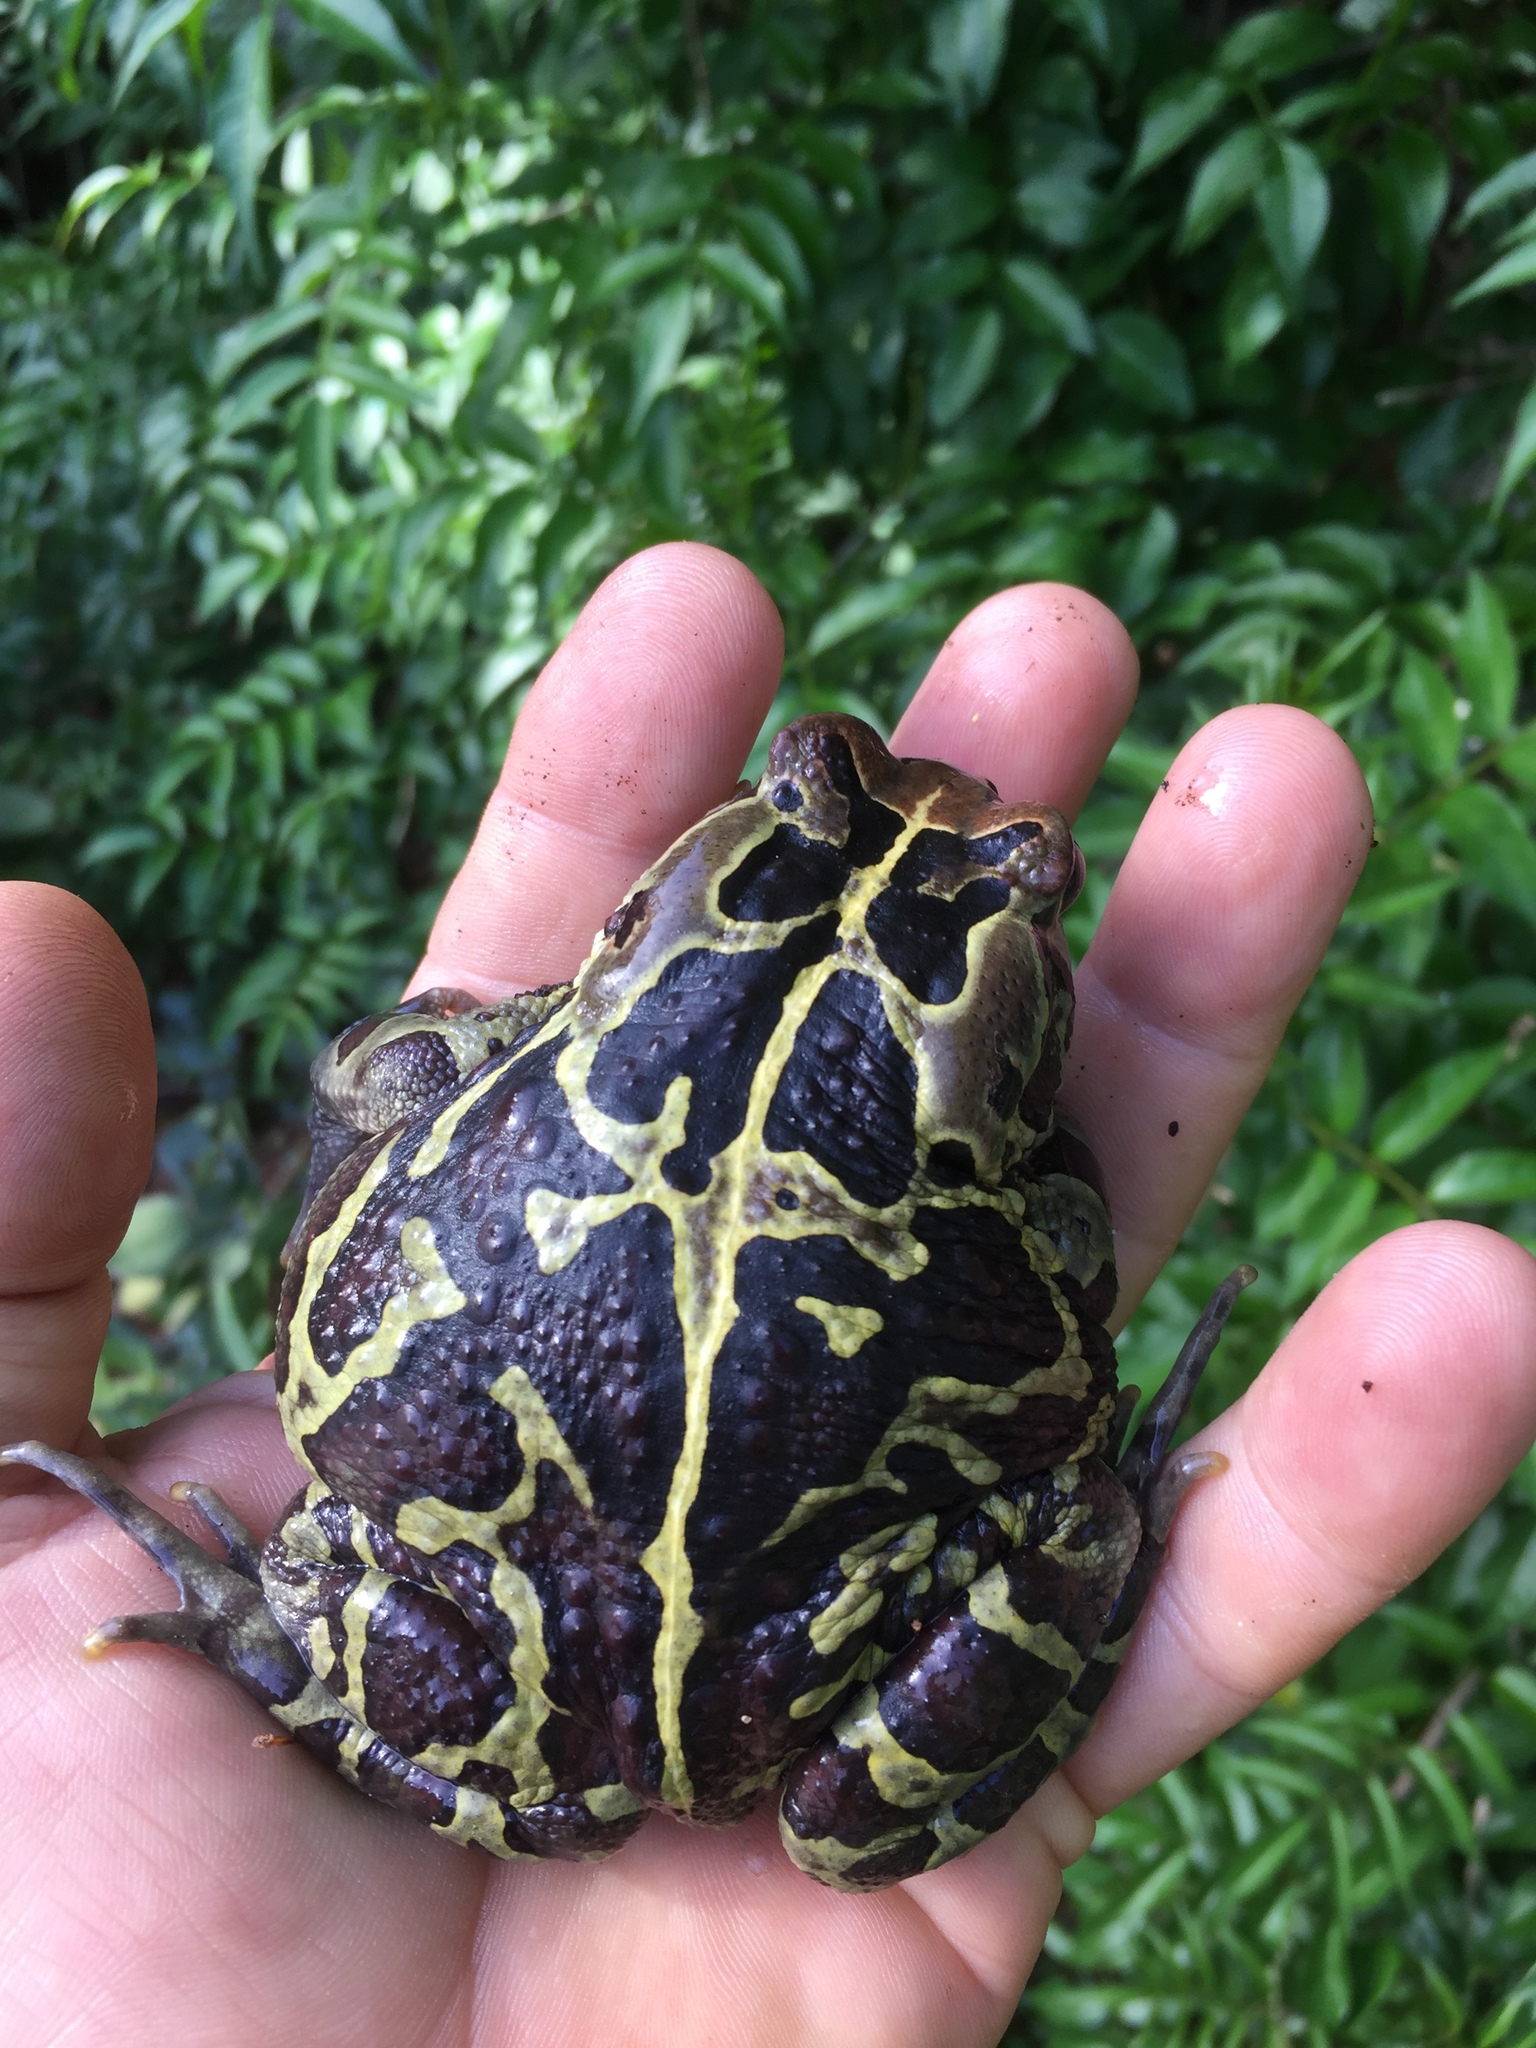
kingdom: Animalia
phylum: Chordata
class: Amphibia
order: Anura
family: Bufonidae
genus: Sclerophrys
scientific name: Sclerophrys pantherina
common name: Panther toad
